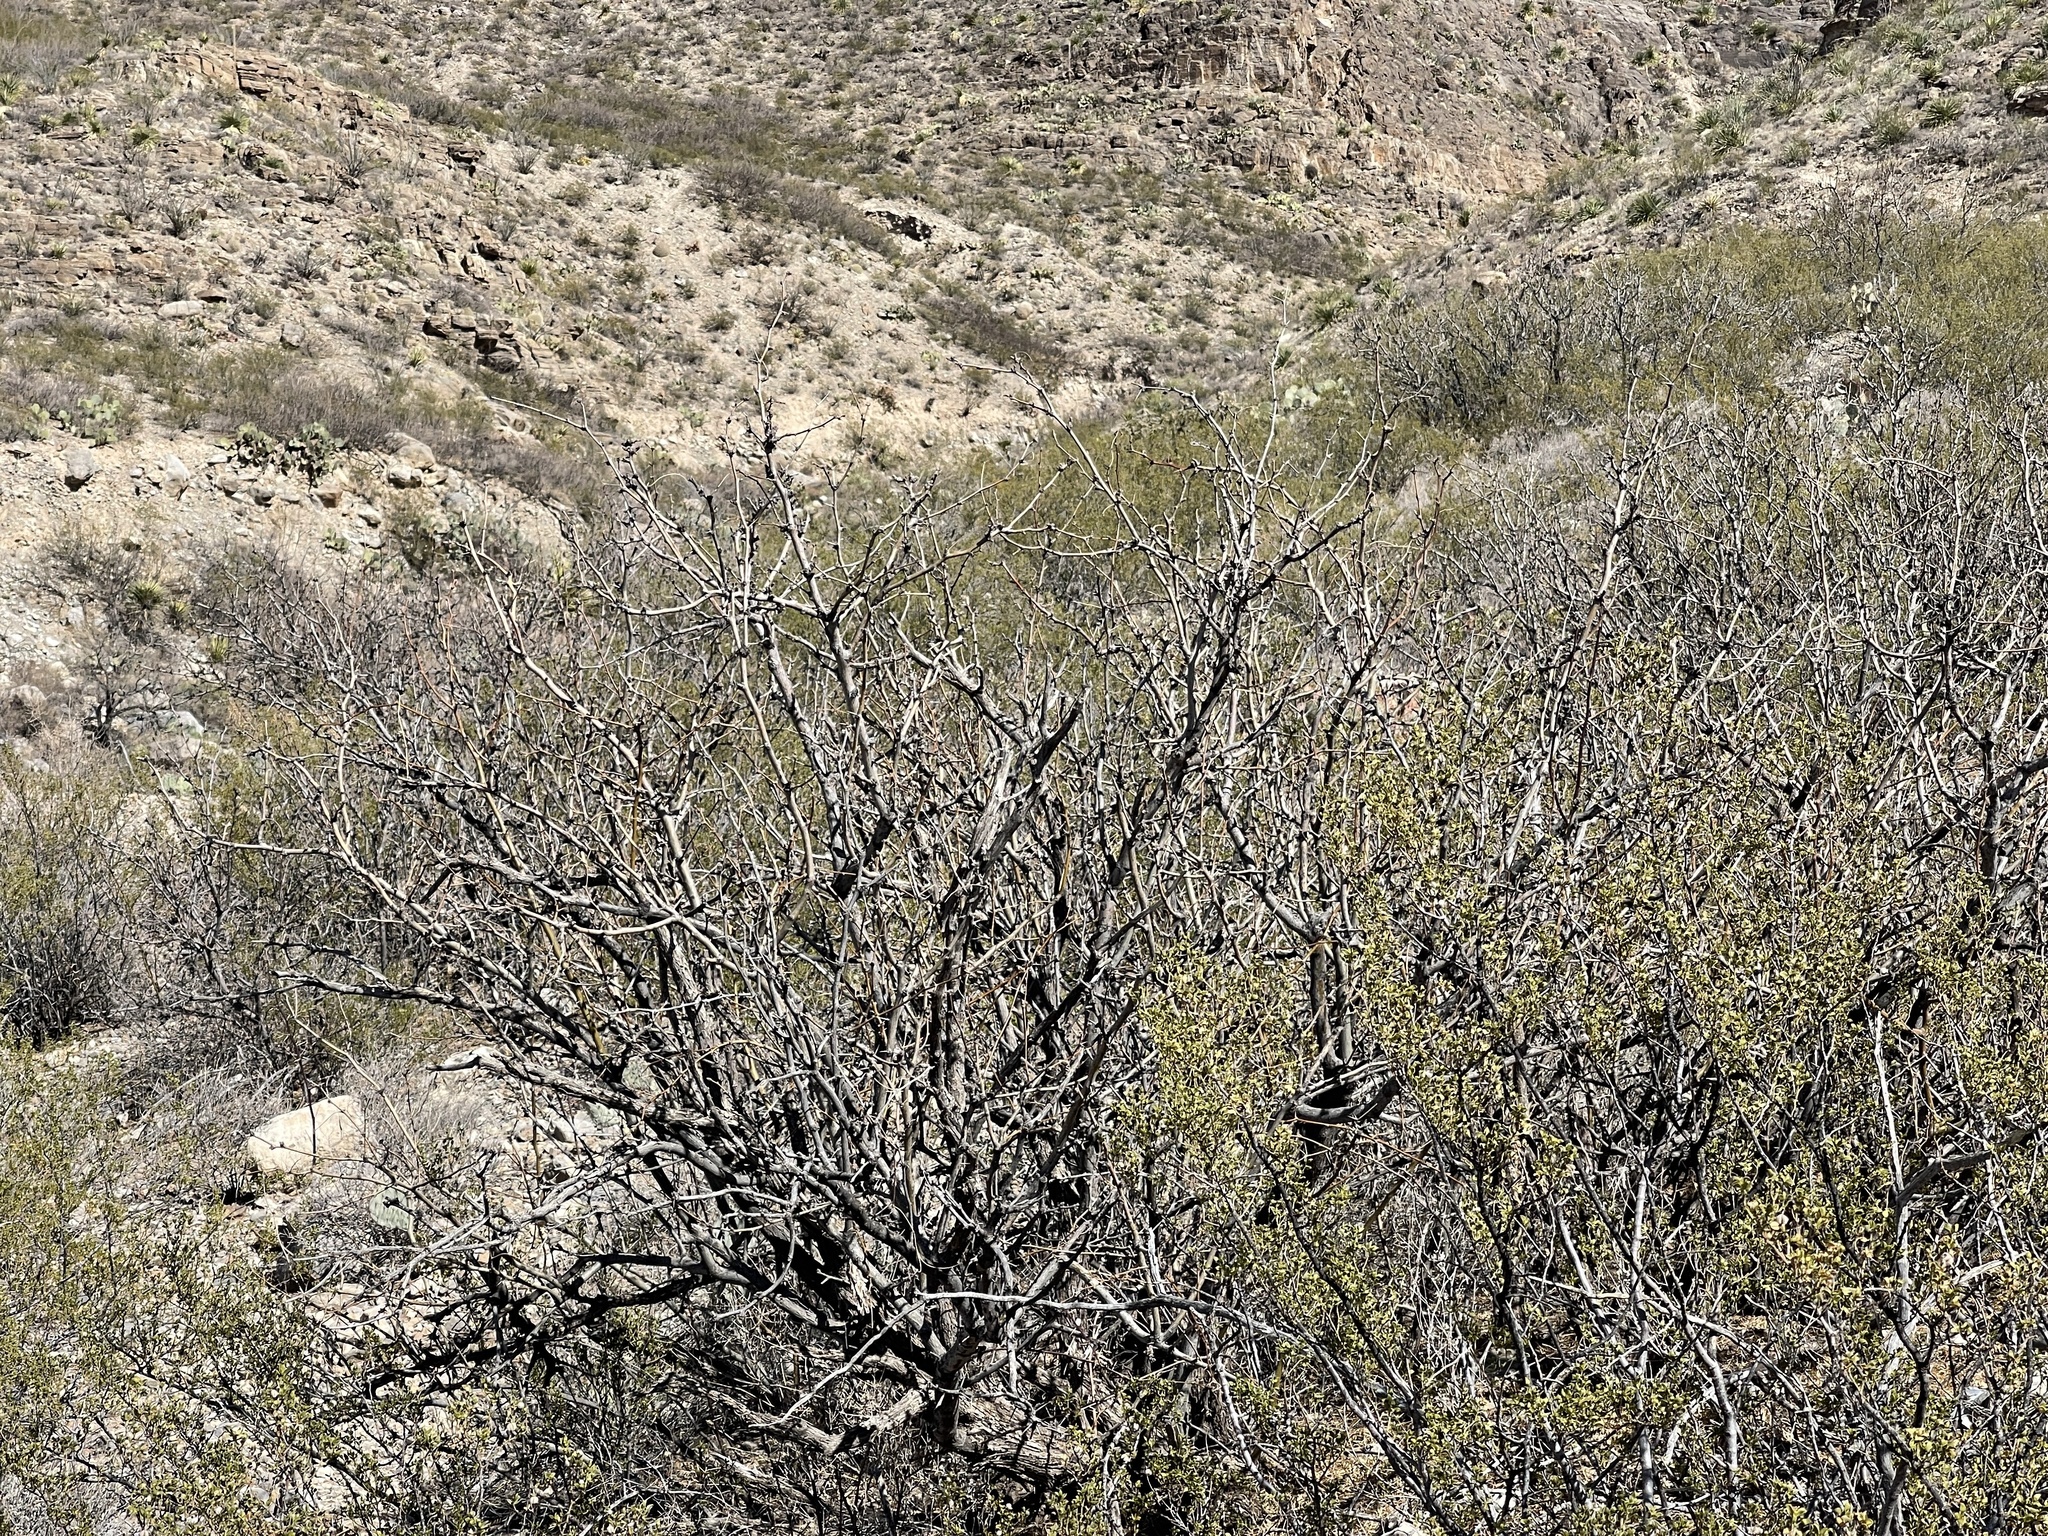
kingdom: Plantae
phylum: Tracheophyta
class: Magnoliopsida
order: Fabales
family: Fabaceae
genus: Prosopis
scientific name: Prosopis glandulosa
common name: Honey mesquite
